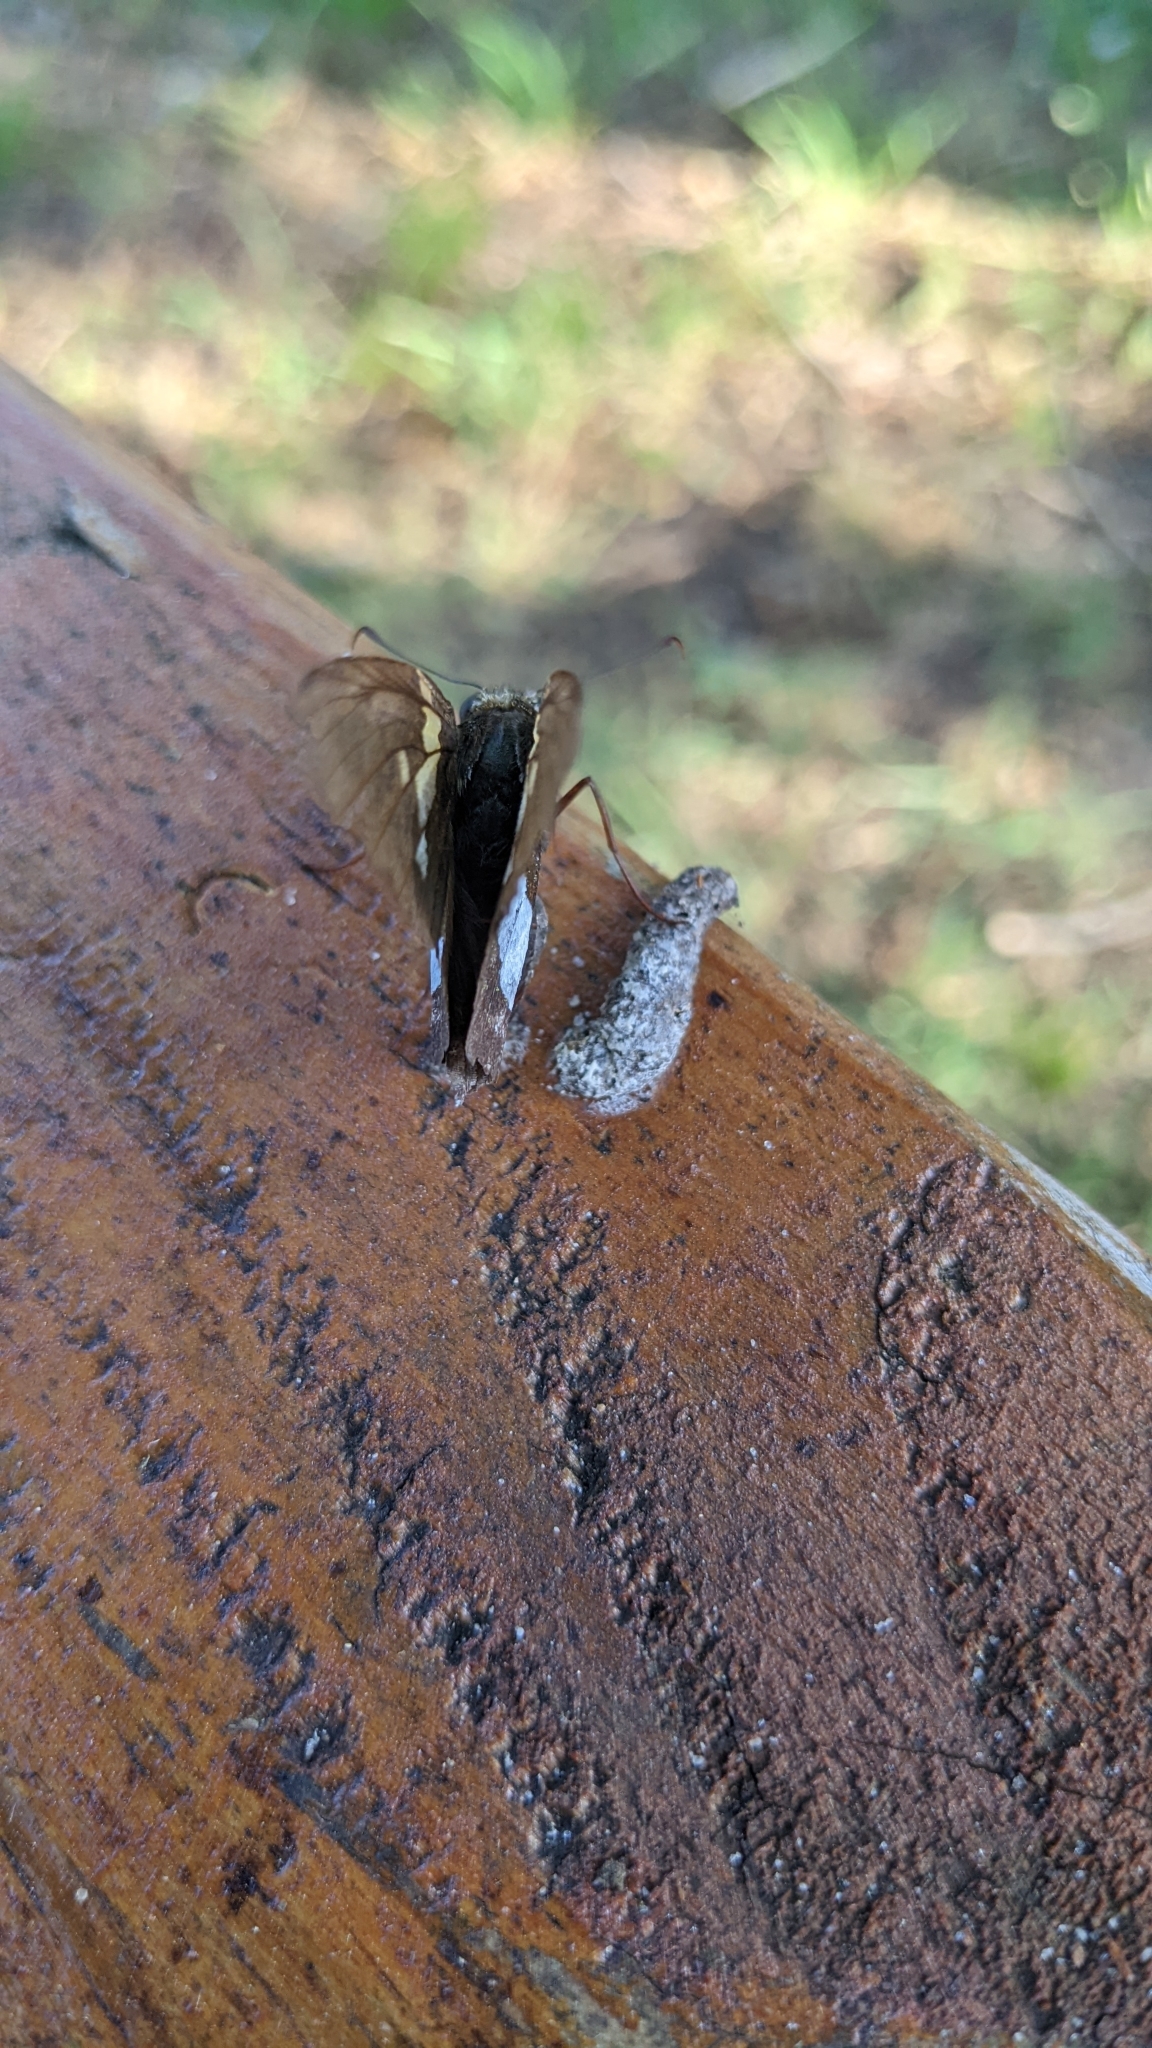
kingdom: Animalia
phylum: Arthropoda
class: Insecta
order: Lepidoptera
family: Hesperiidae
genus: Epargyreus
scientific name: Epargyreus clarus
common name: Silver-spotted skipper
